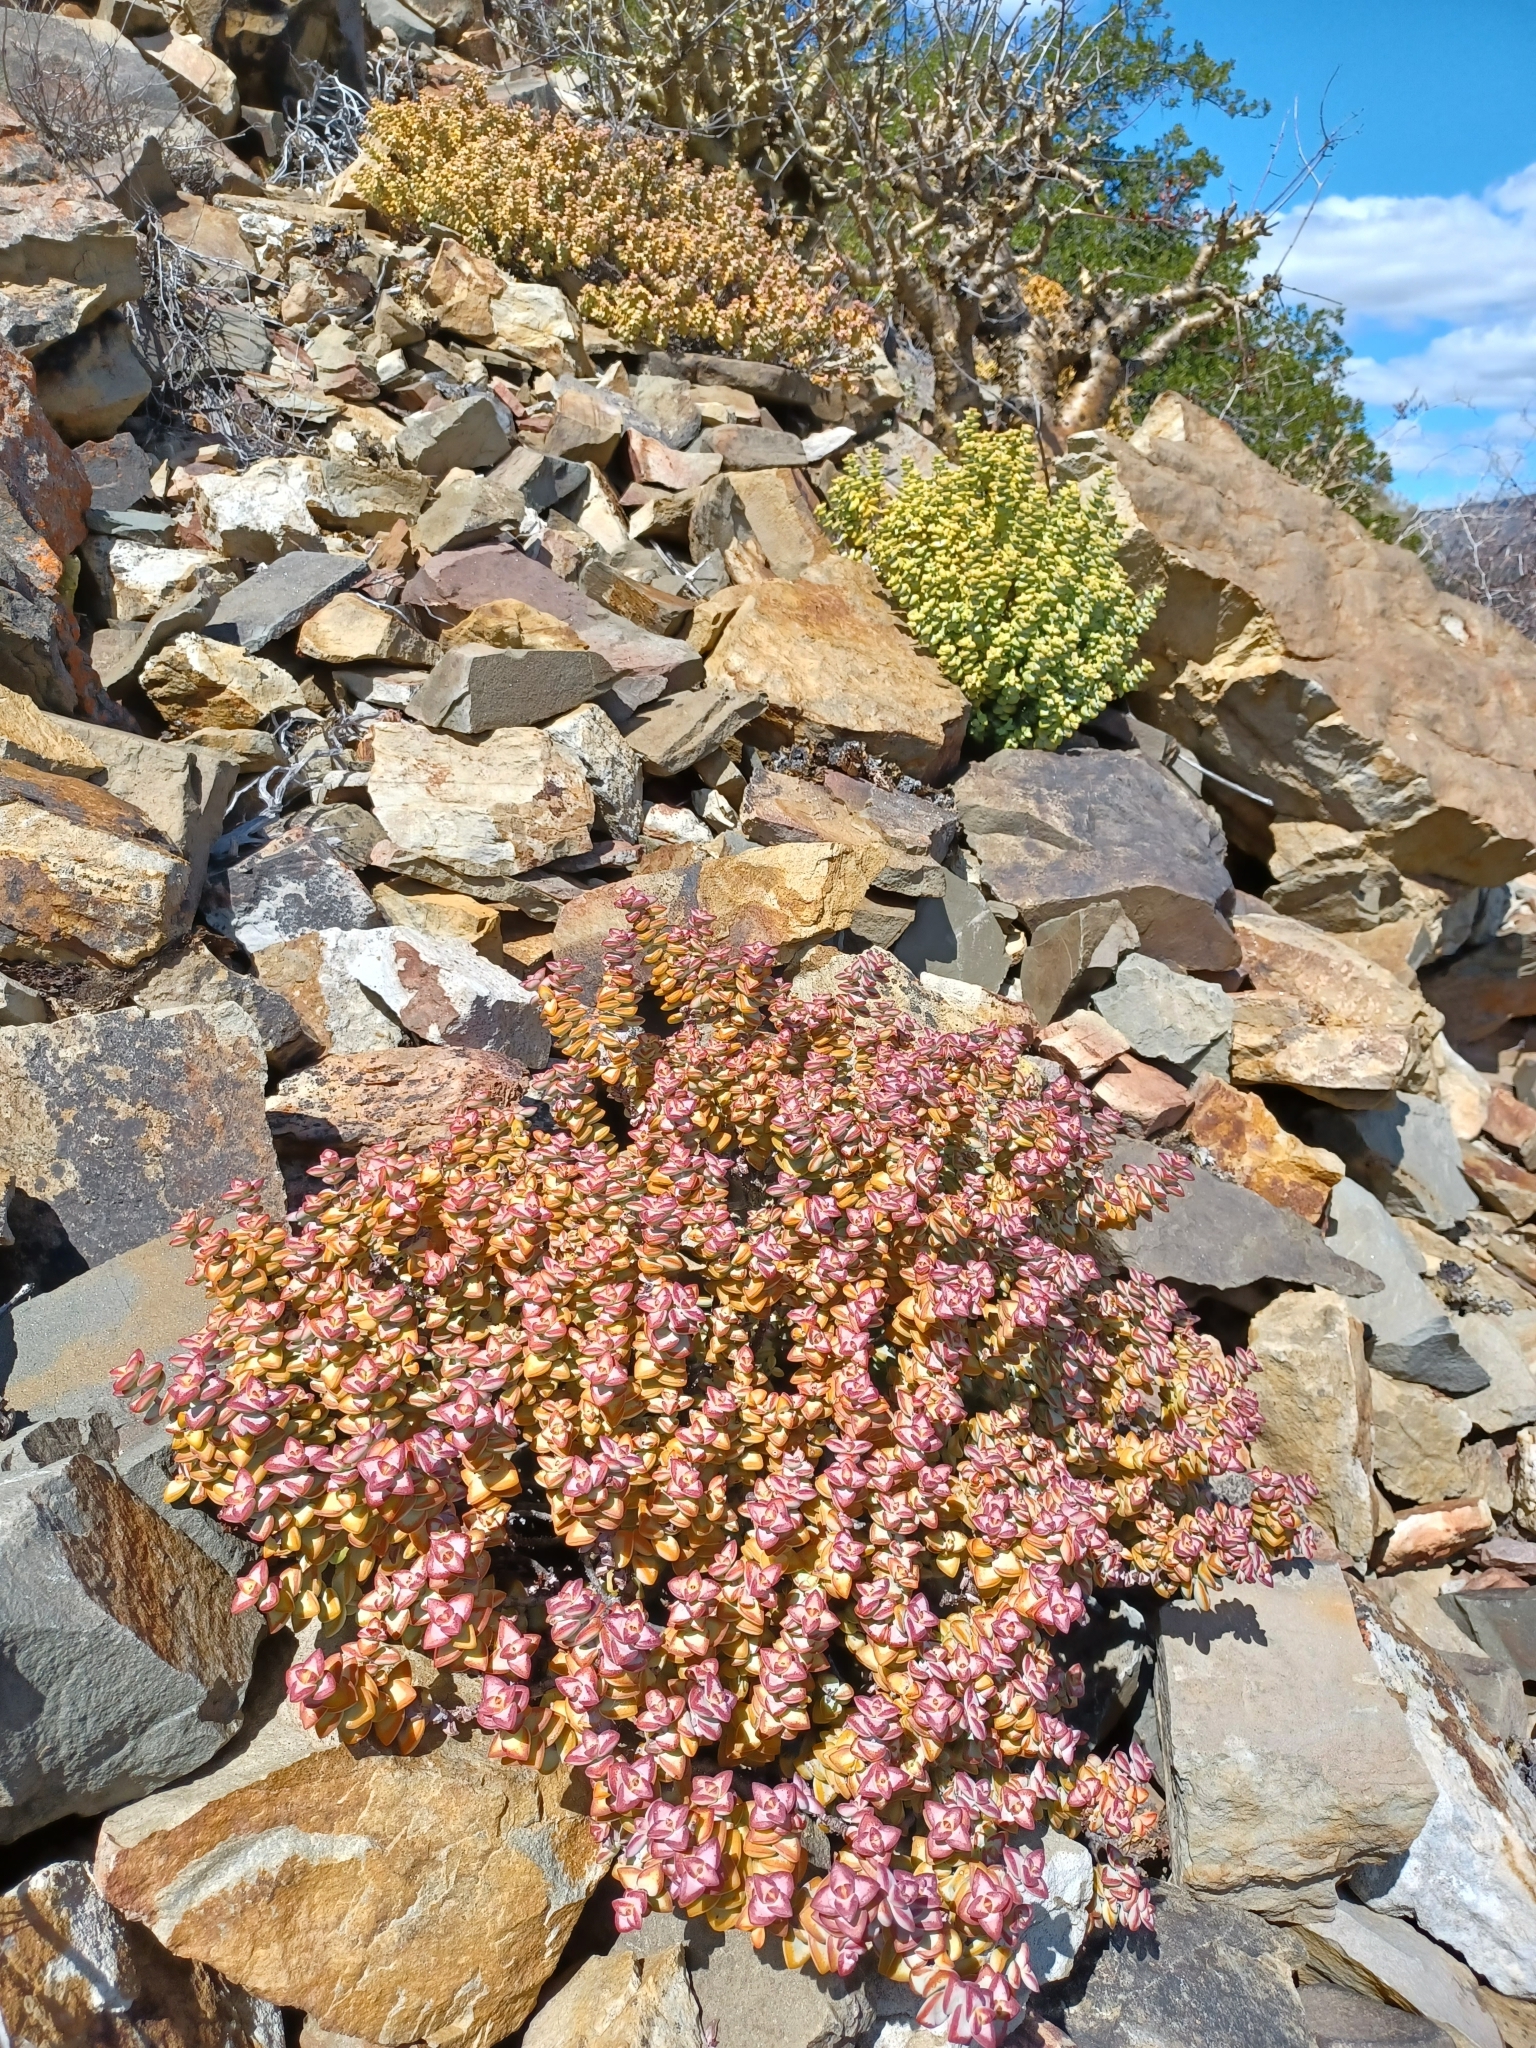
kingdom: Plantae
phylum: Tracheophyta
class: Magnoliopsida
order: Saxifragales
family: Crassulaceae
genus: Crassula
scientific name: Crassula rupestris
